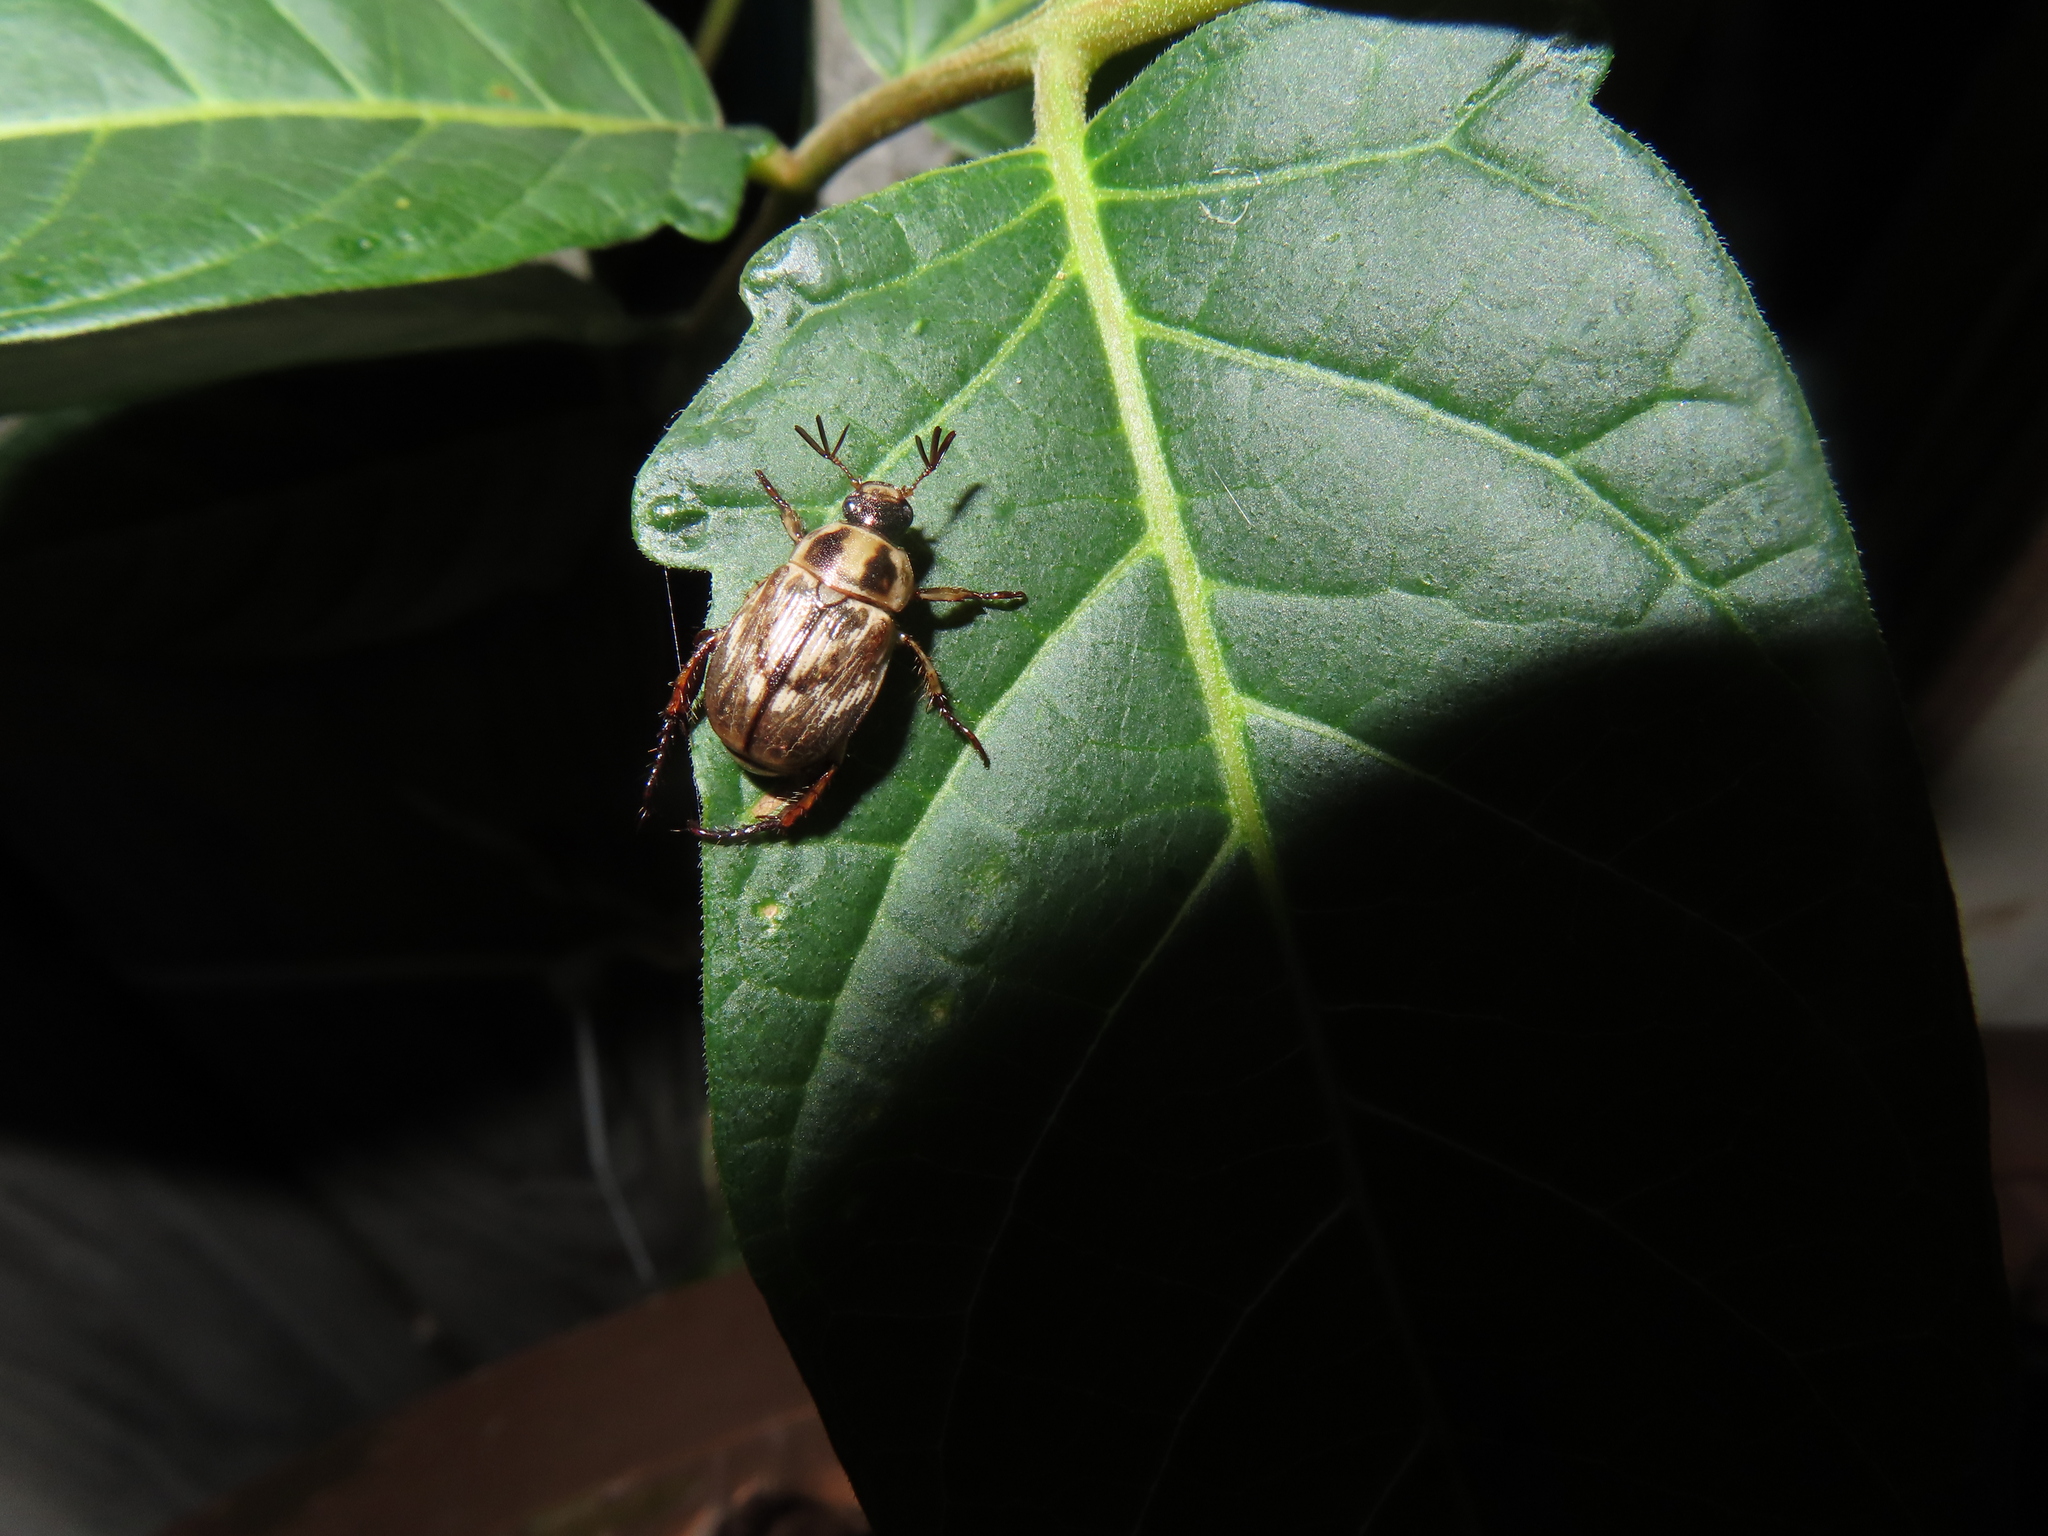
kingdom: Animalia
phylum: Arthropoda
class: Insecta
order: Coleoptera
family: Scarabaeidae
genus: Exomala
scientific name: Exomala orientalis
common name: Oriental beetle
